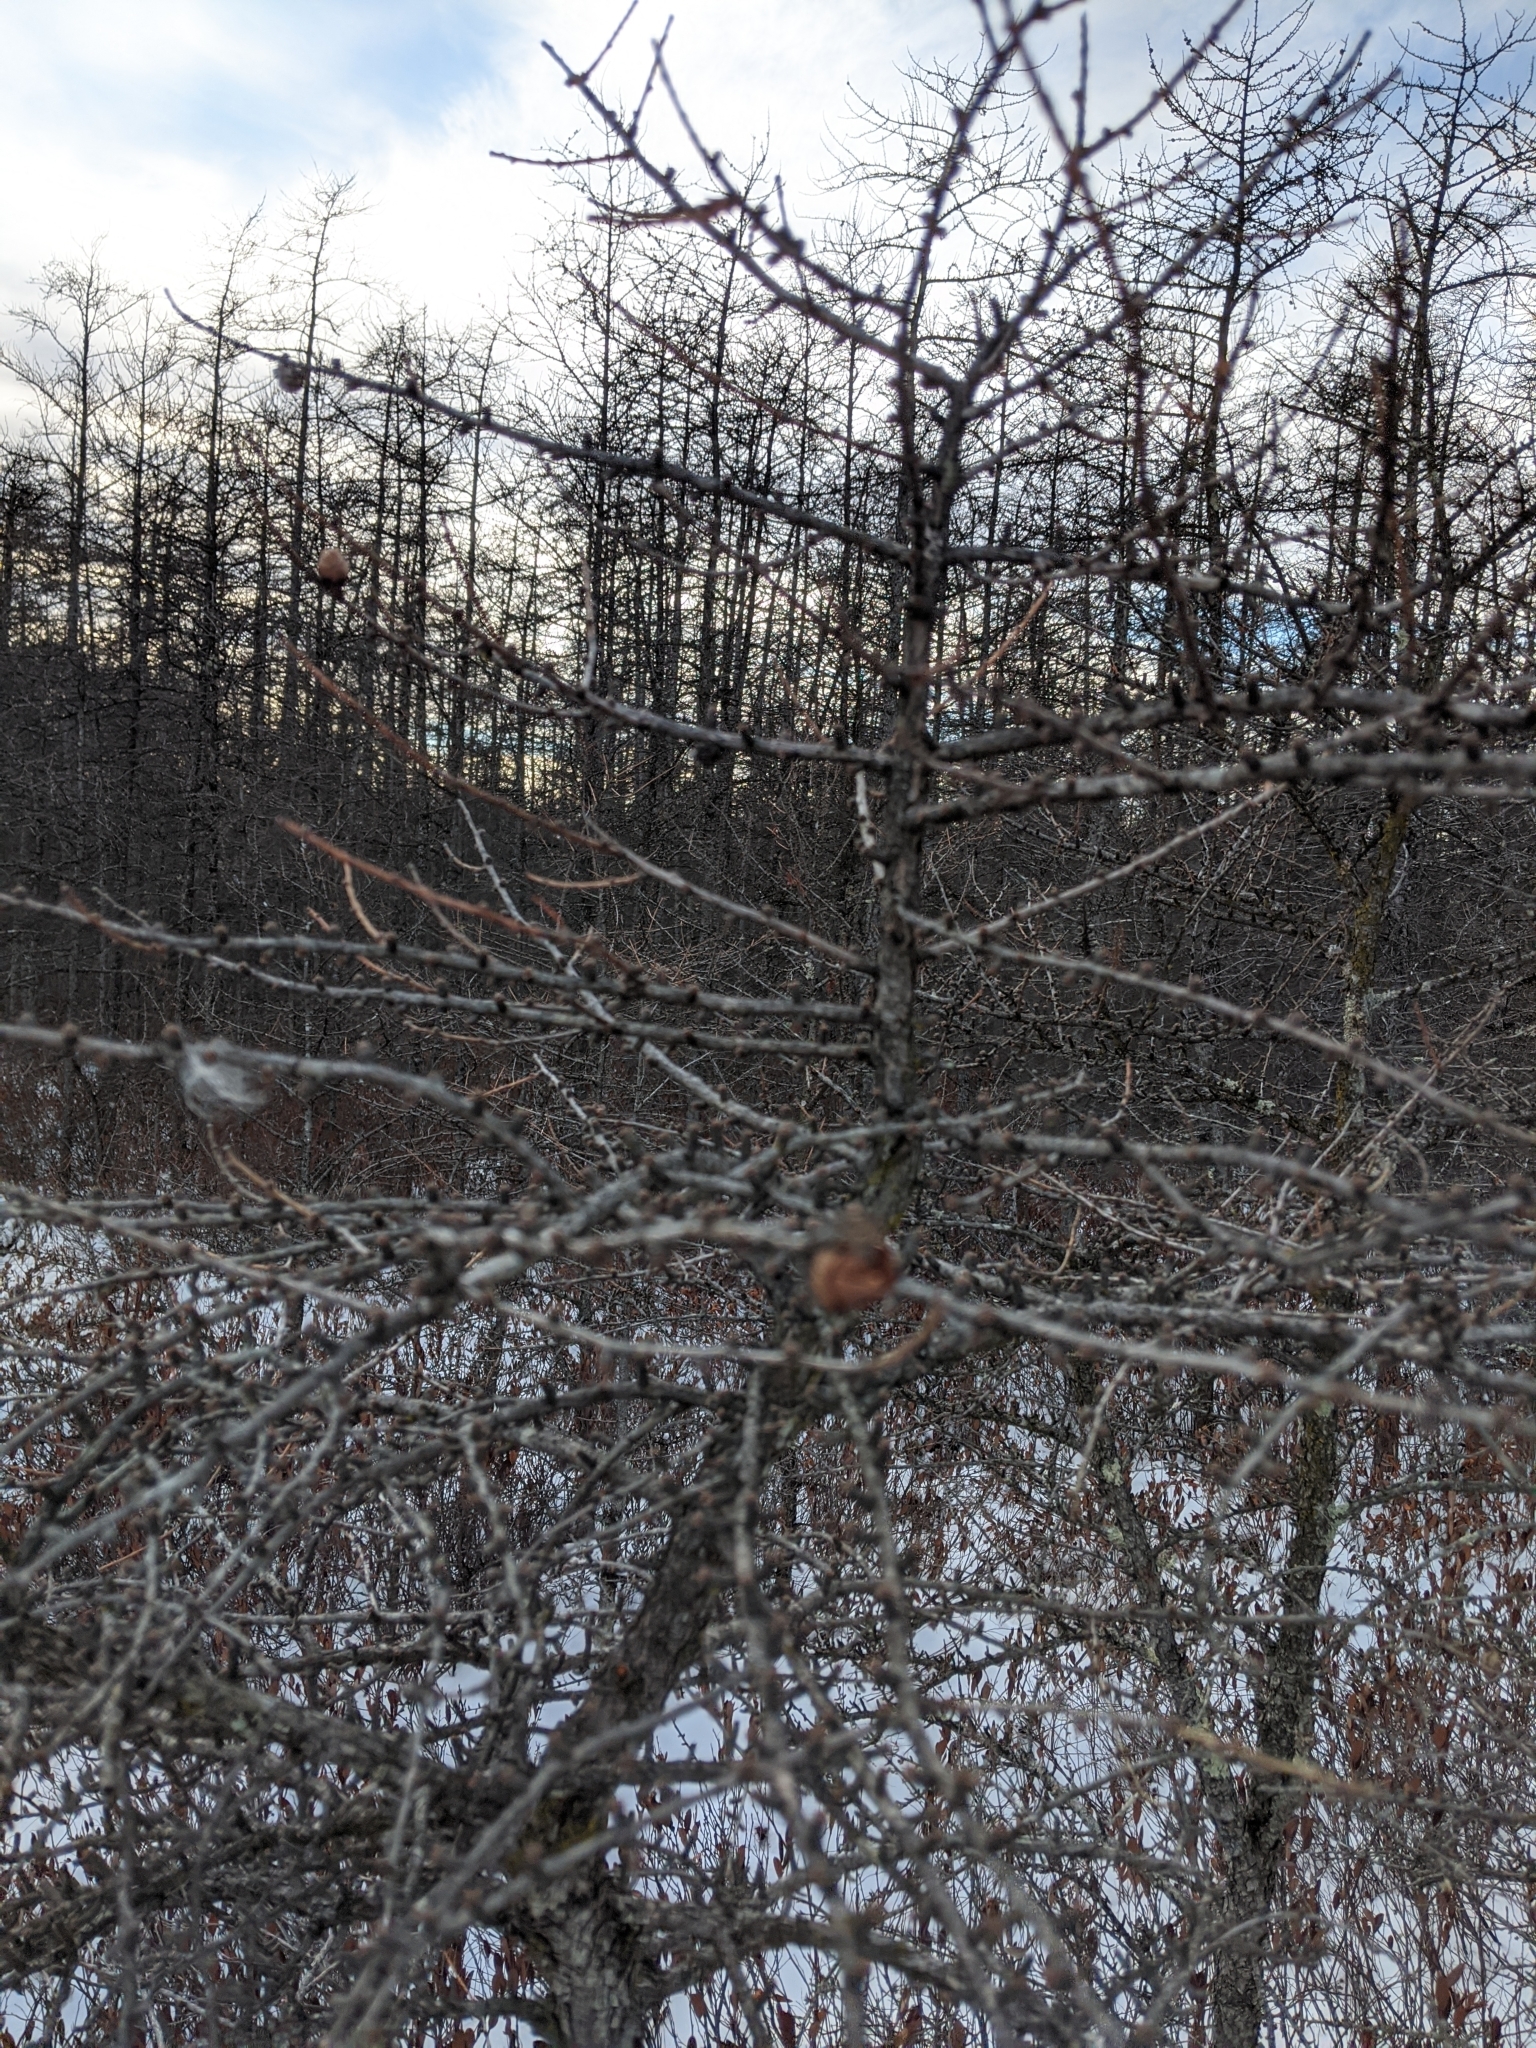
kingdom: Plantae
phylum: Tracheophyta
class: Pinopsida
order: Pinales
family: Pinaceae
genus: Larix
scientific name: Larix laricina
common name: American larch
